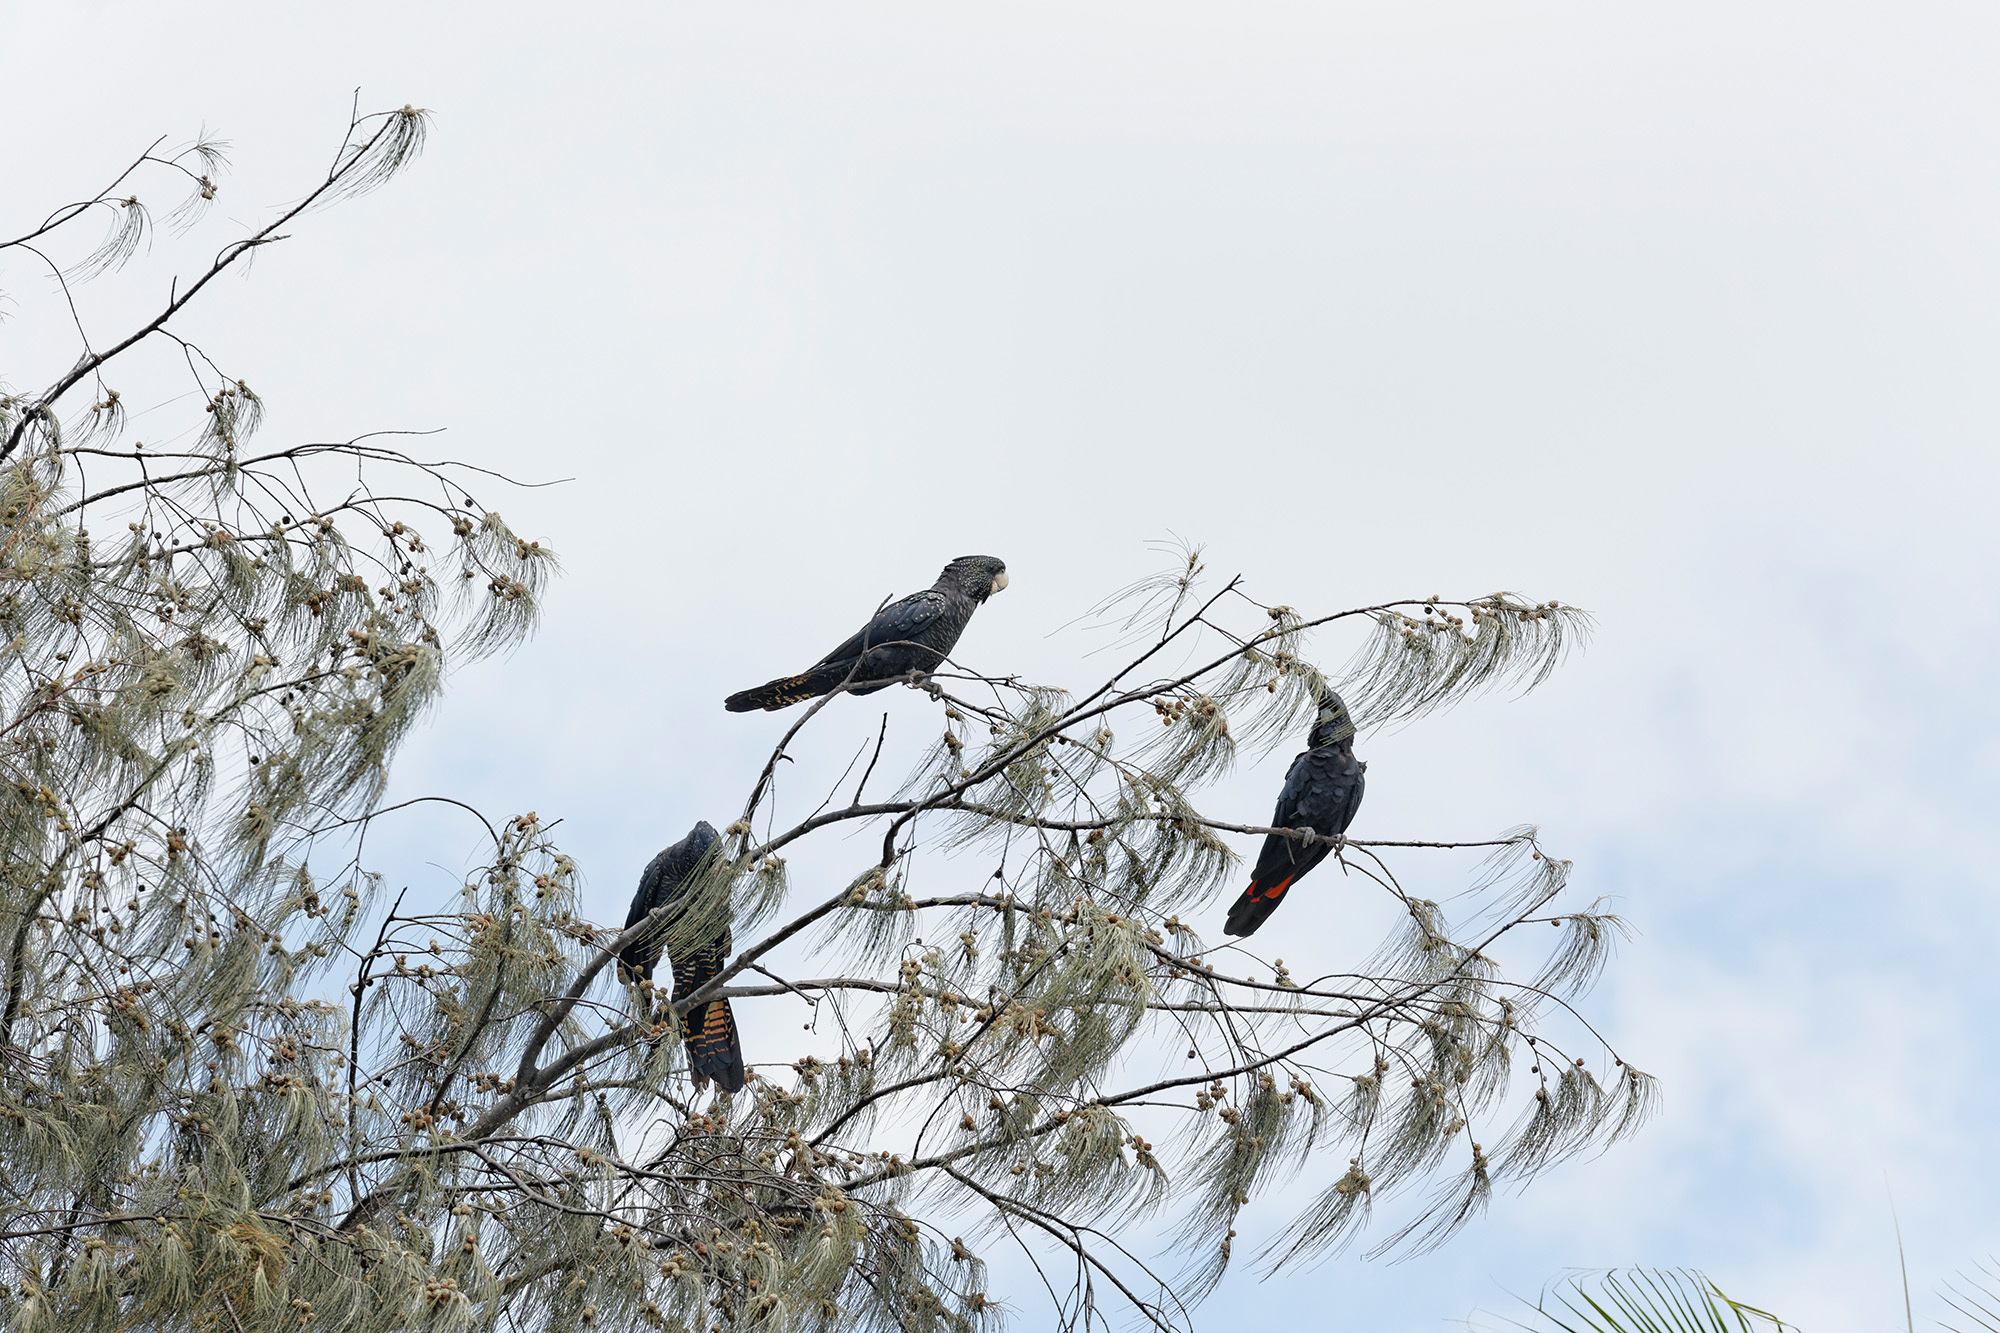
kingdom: Animalia
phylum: Chordata
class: Aves
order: Psittaciformes
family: Psittacidae
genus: Calyptorhynchus
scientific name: Calyptorhynchus banksii
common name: Red-tailed black cockatoo
